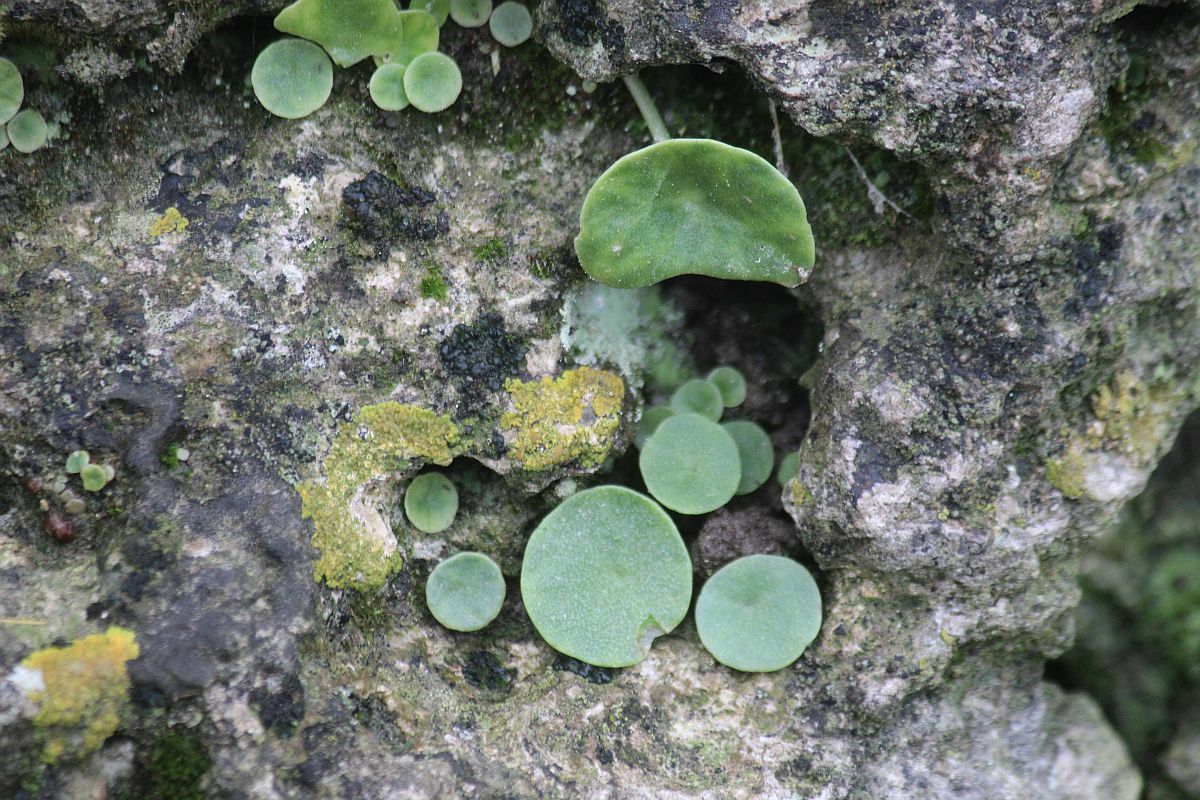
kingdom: Plantae
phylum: Tracheophyta
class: Magnoliopsida
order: Saxifragales
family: Crassulaceae
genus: Umbilicus
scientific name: Umbilicus rupestris
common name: Navelwort
